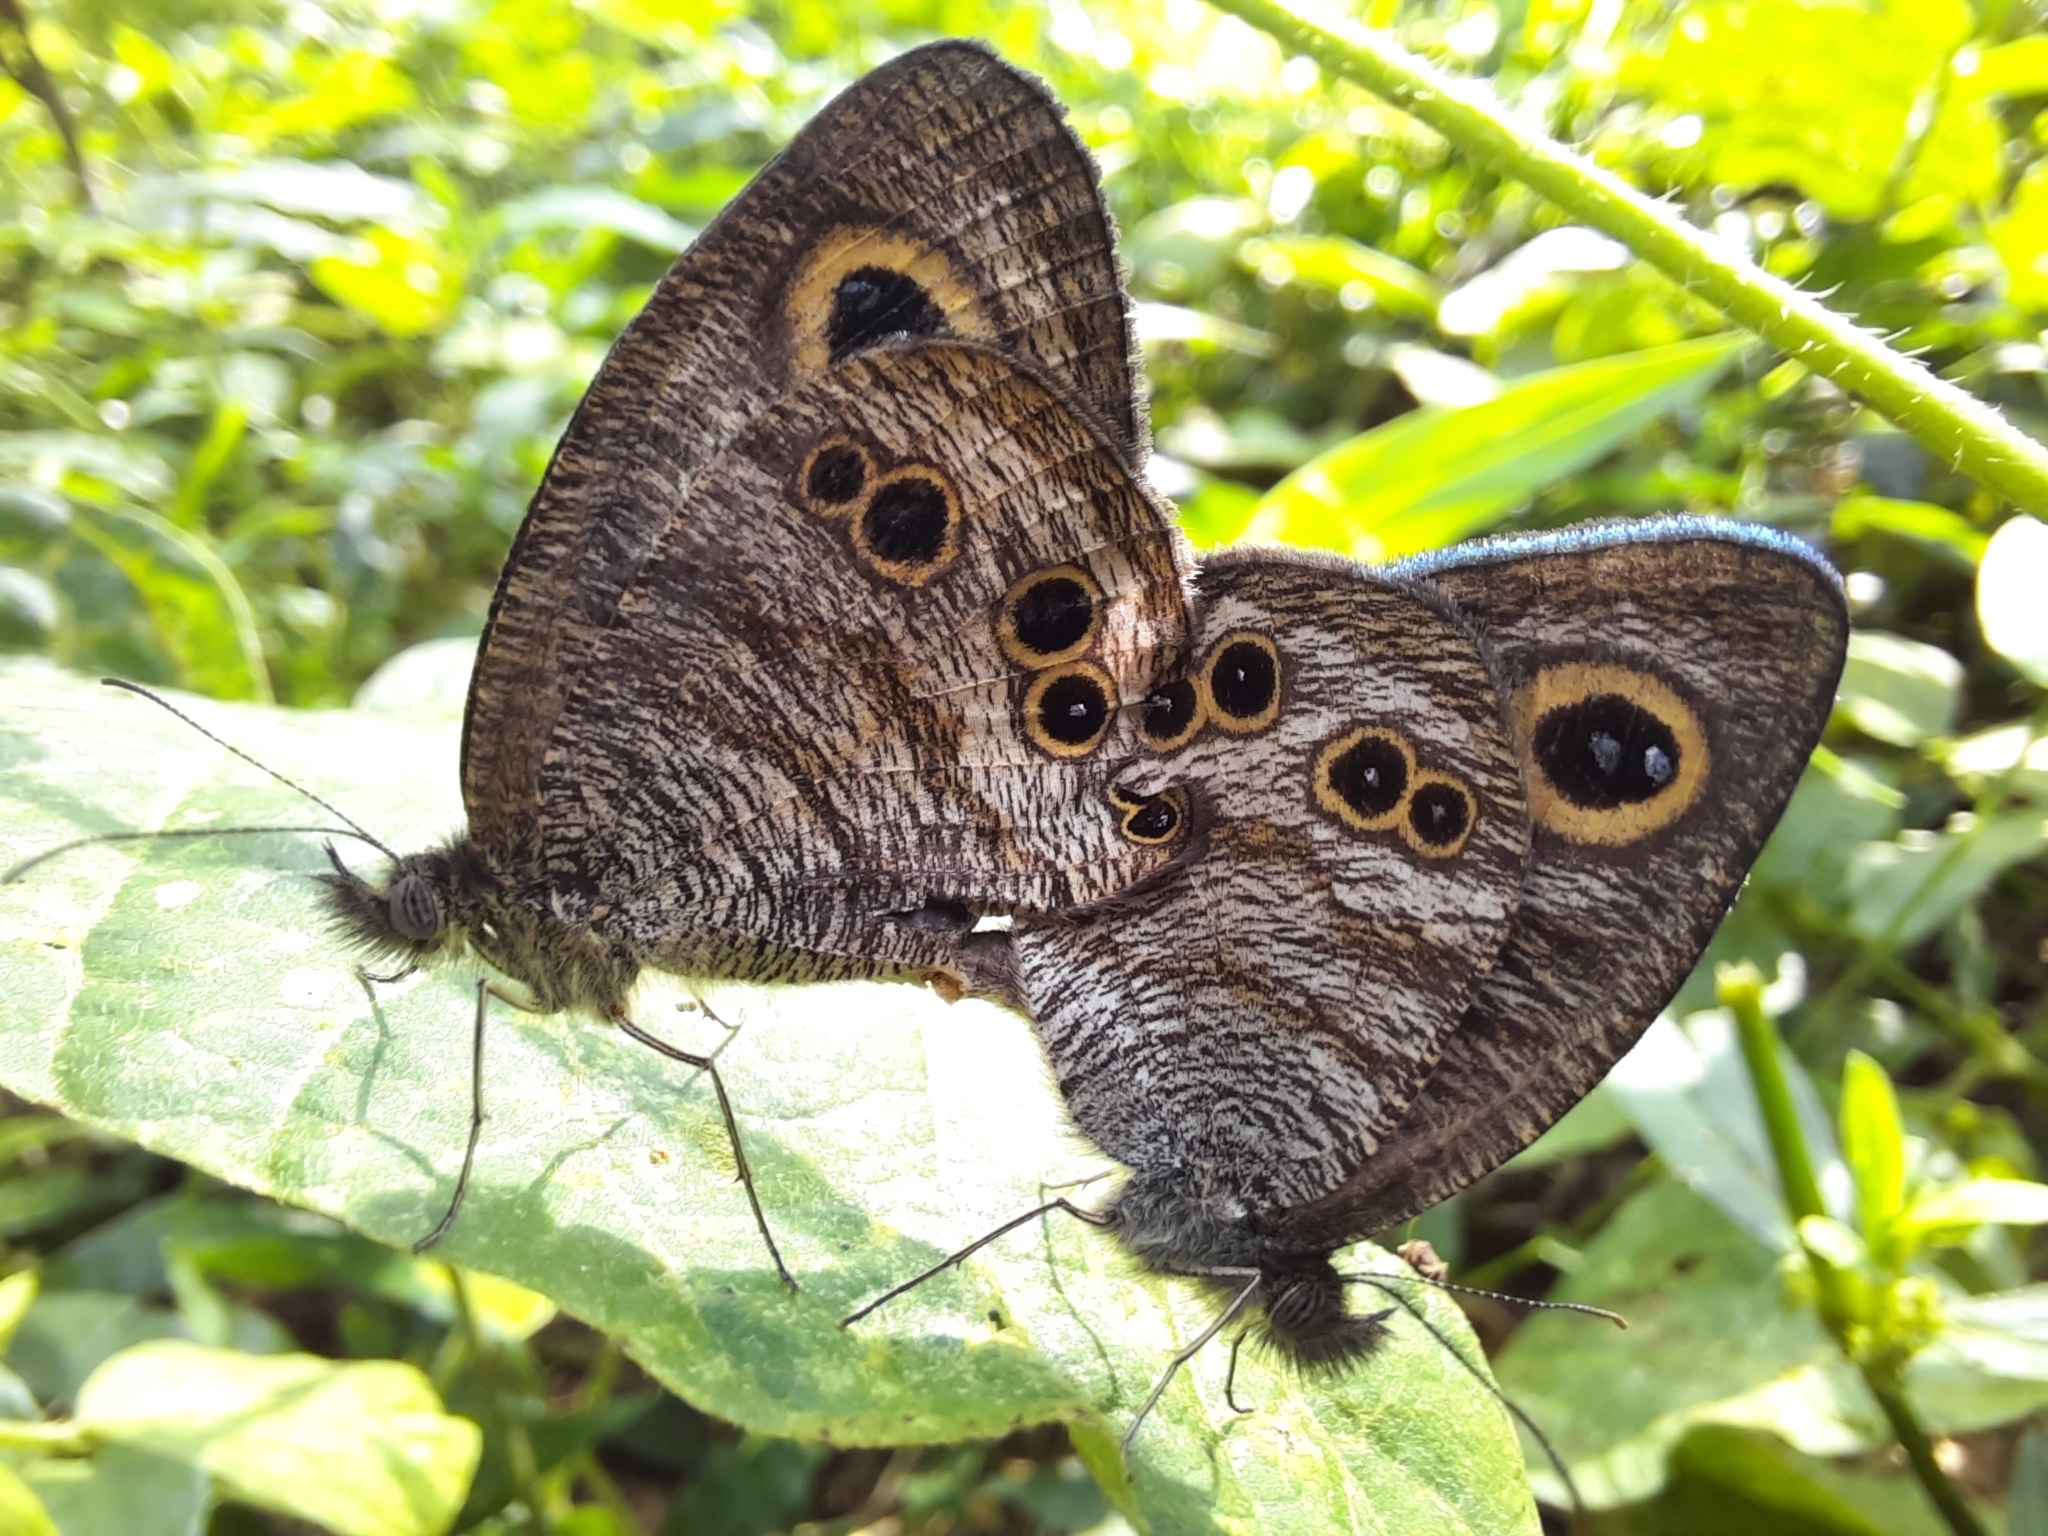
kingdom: Animalia
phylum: Arthropoda
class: Insecta
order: Lepidoptera
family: Nymphalidae
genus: Ypthima
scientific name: Ypthima baldus
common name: Common five-ring
